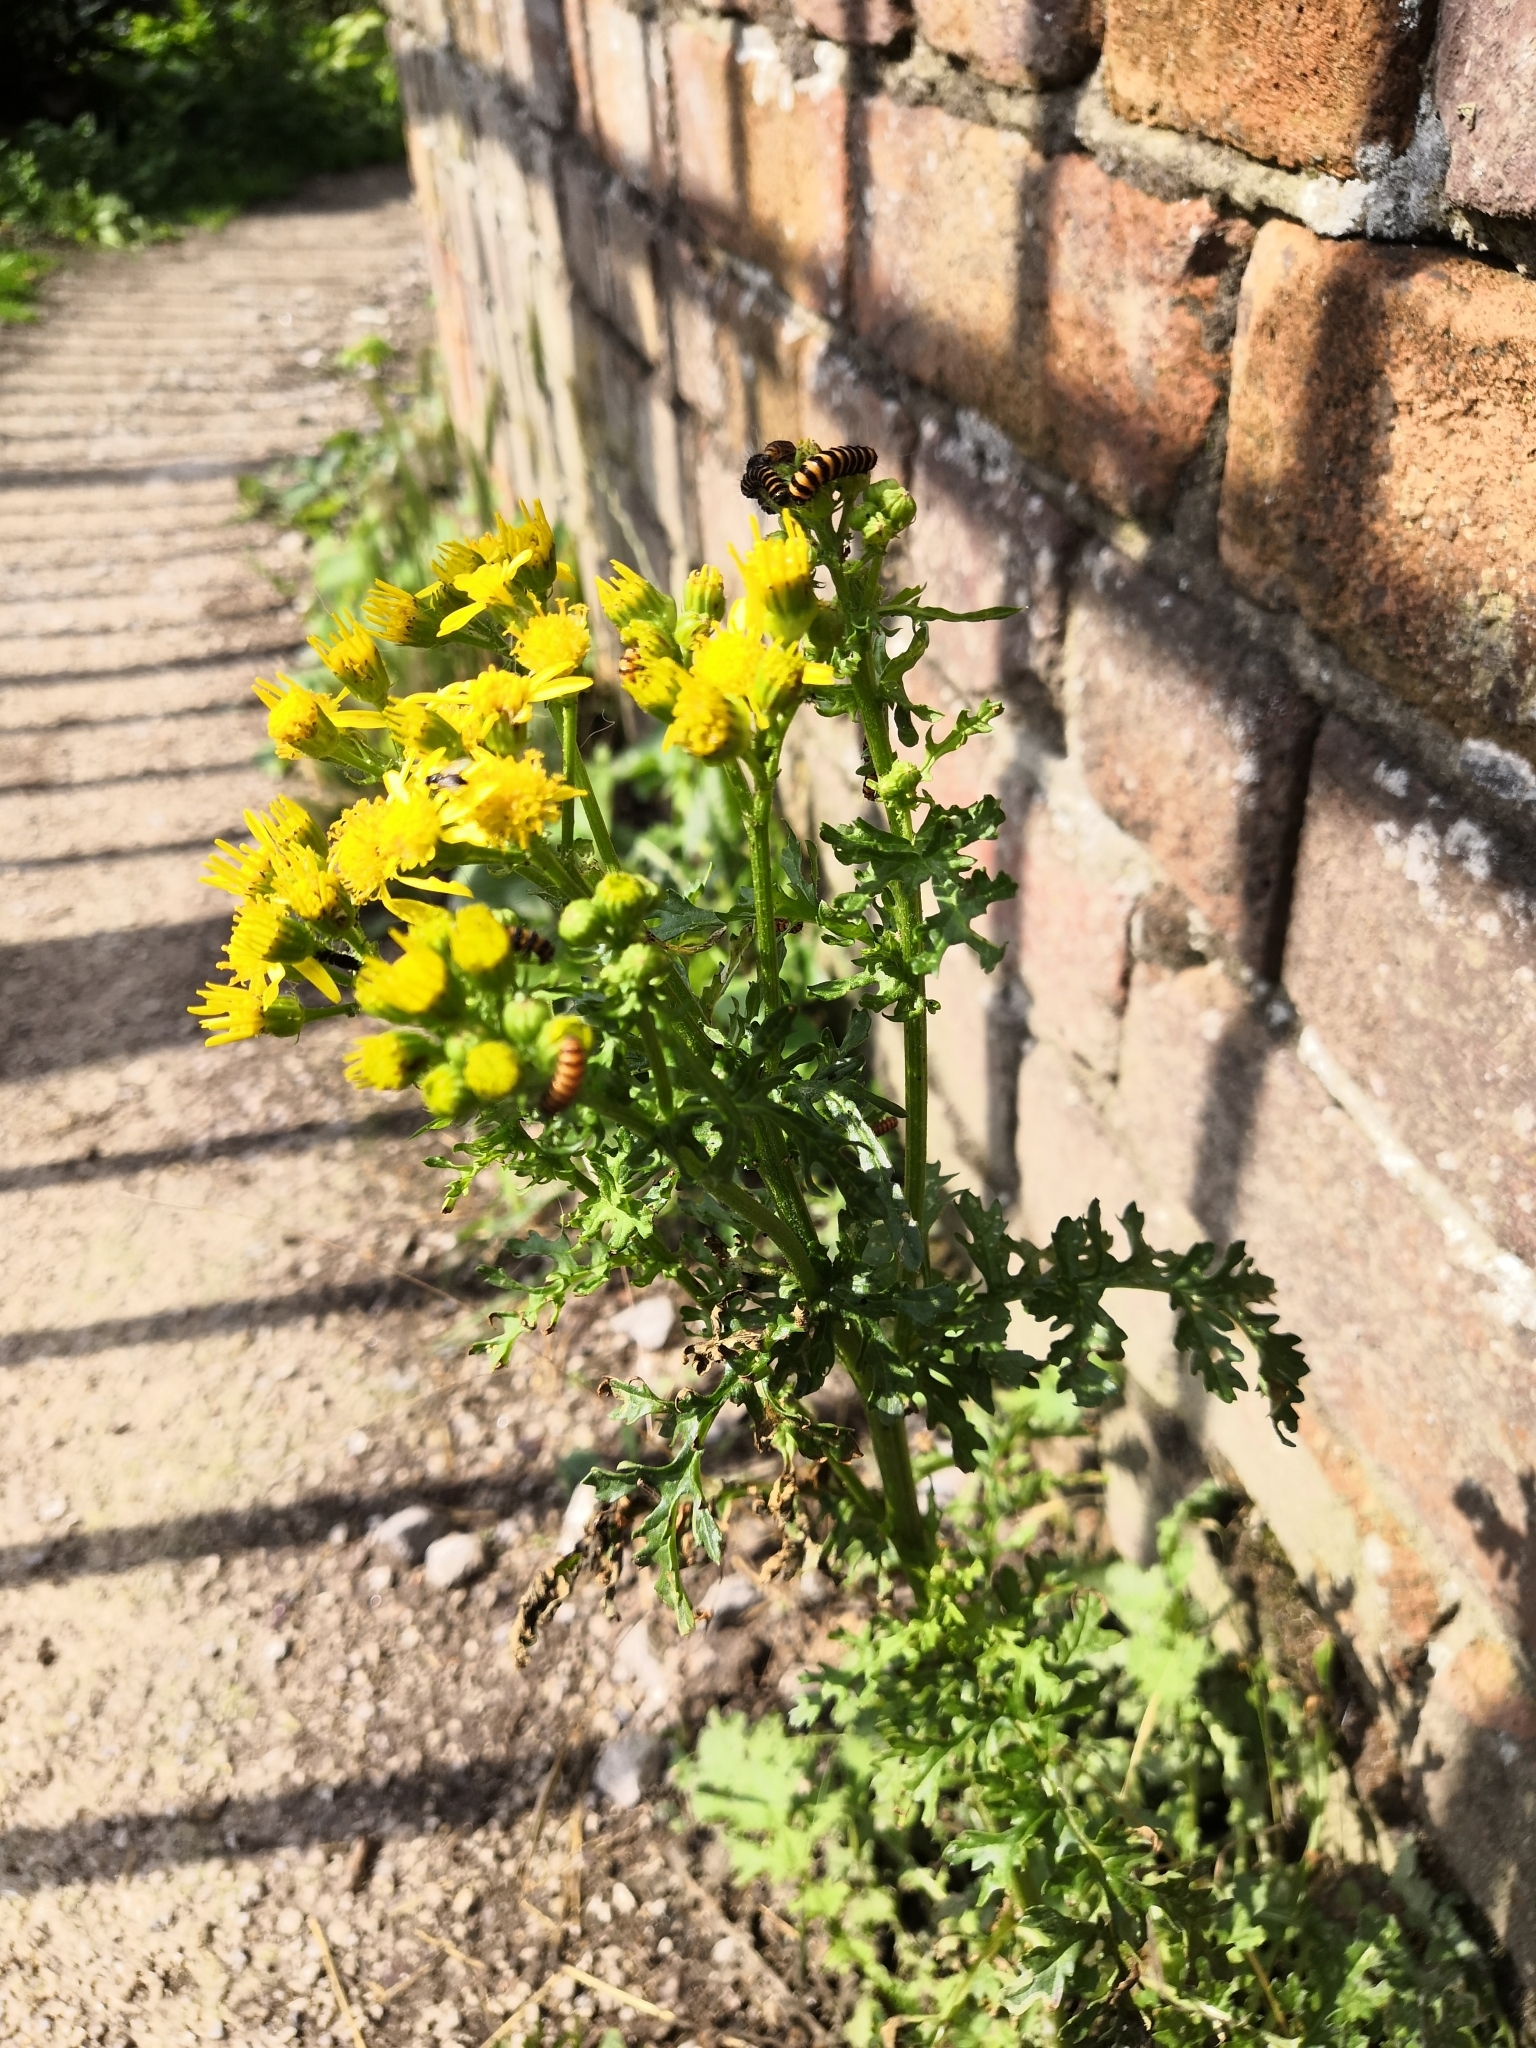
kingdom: Plantae
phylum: Tracheophyta
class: Magnoliopsida
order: Asterales
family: Asteraceae
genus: Jacobaea
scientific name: Jacobaea vulgaris
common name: Stinking willie
